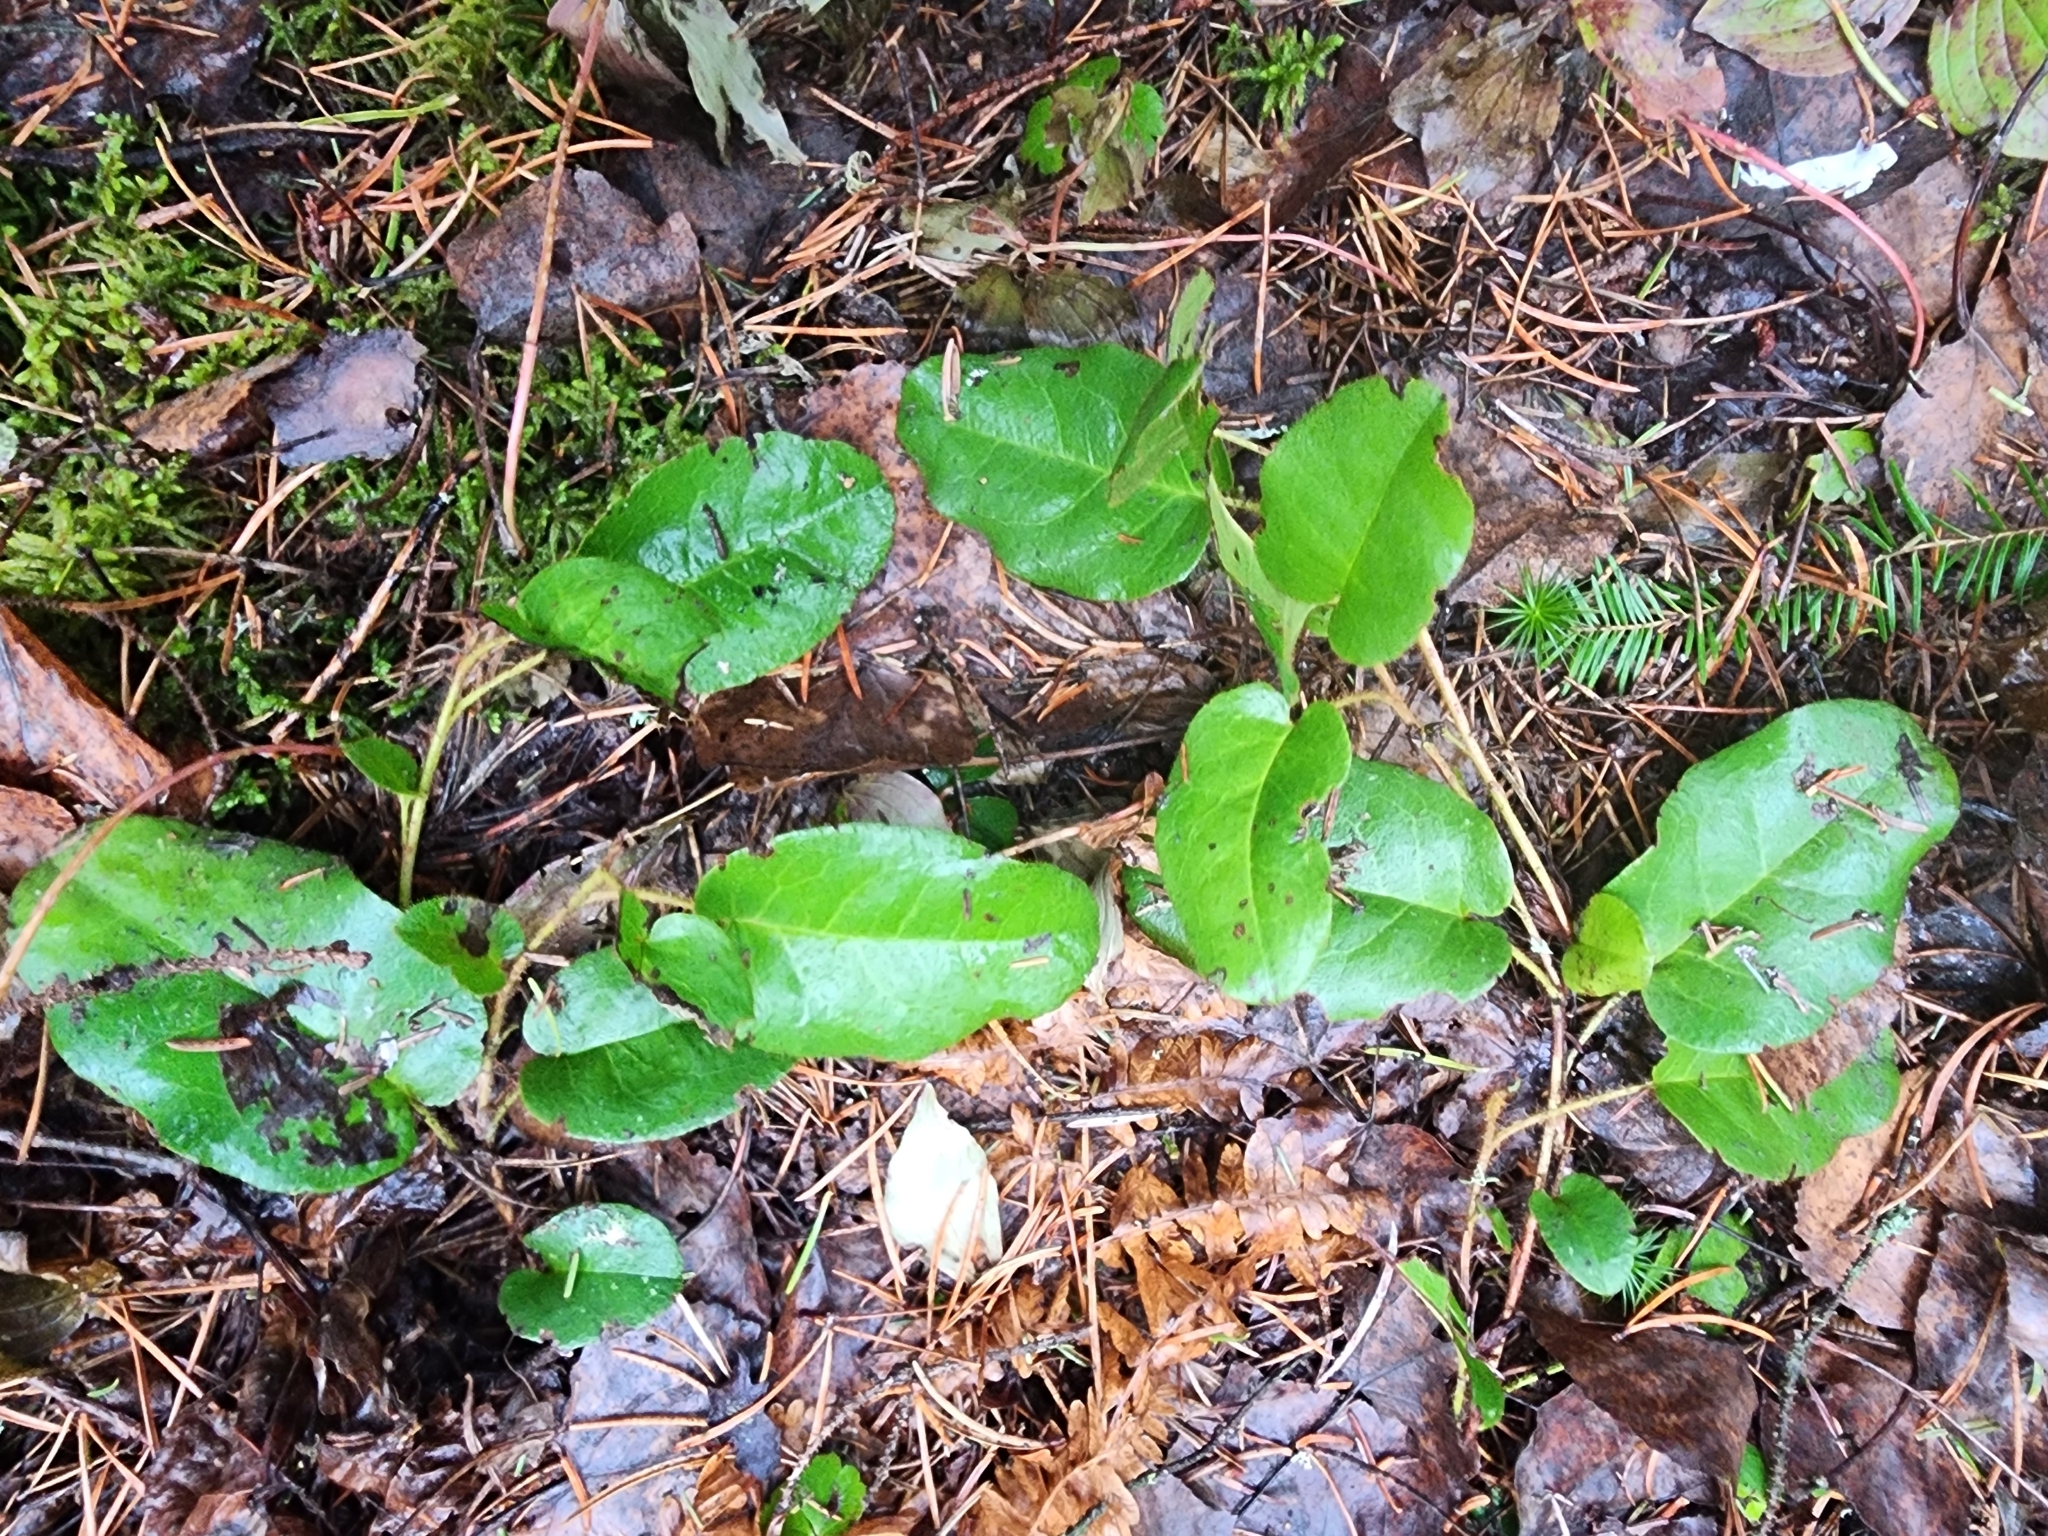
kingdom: Plantae
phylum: Tracheophyta
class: Magnoliopsida
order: Ericales
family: Ericaceae
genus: Epigaea
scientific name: Epigaea repens
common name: Gravelroot
